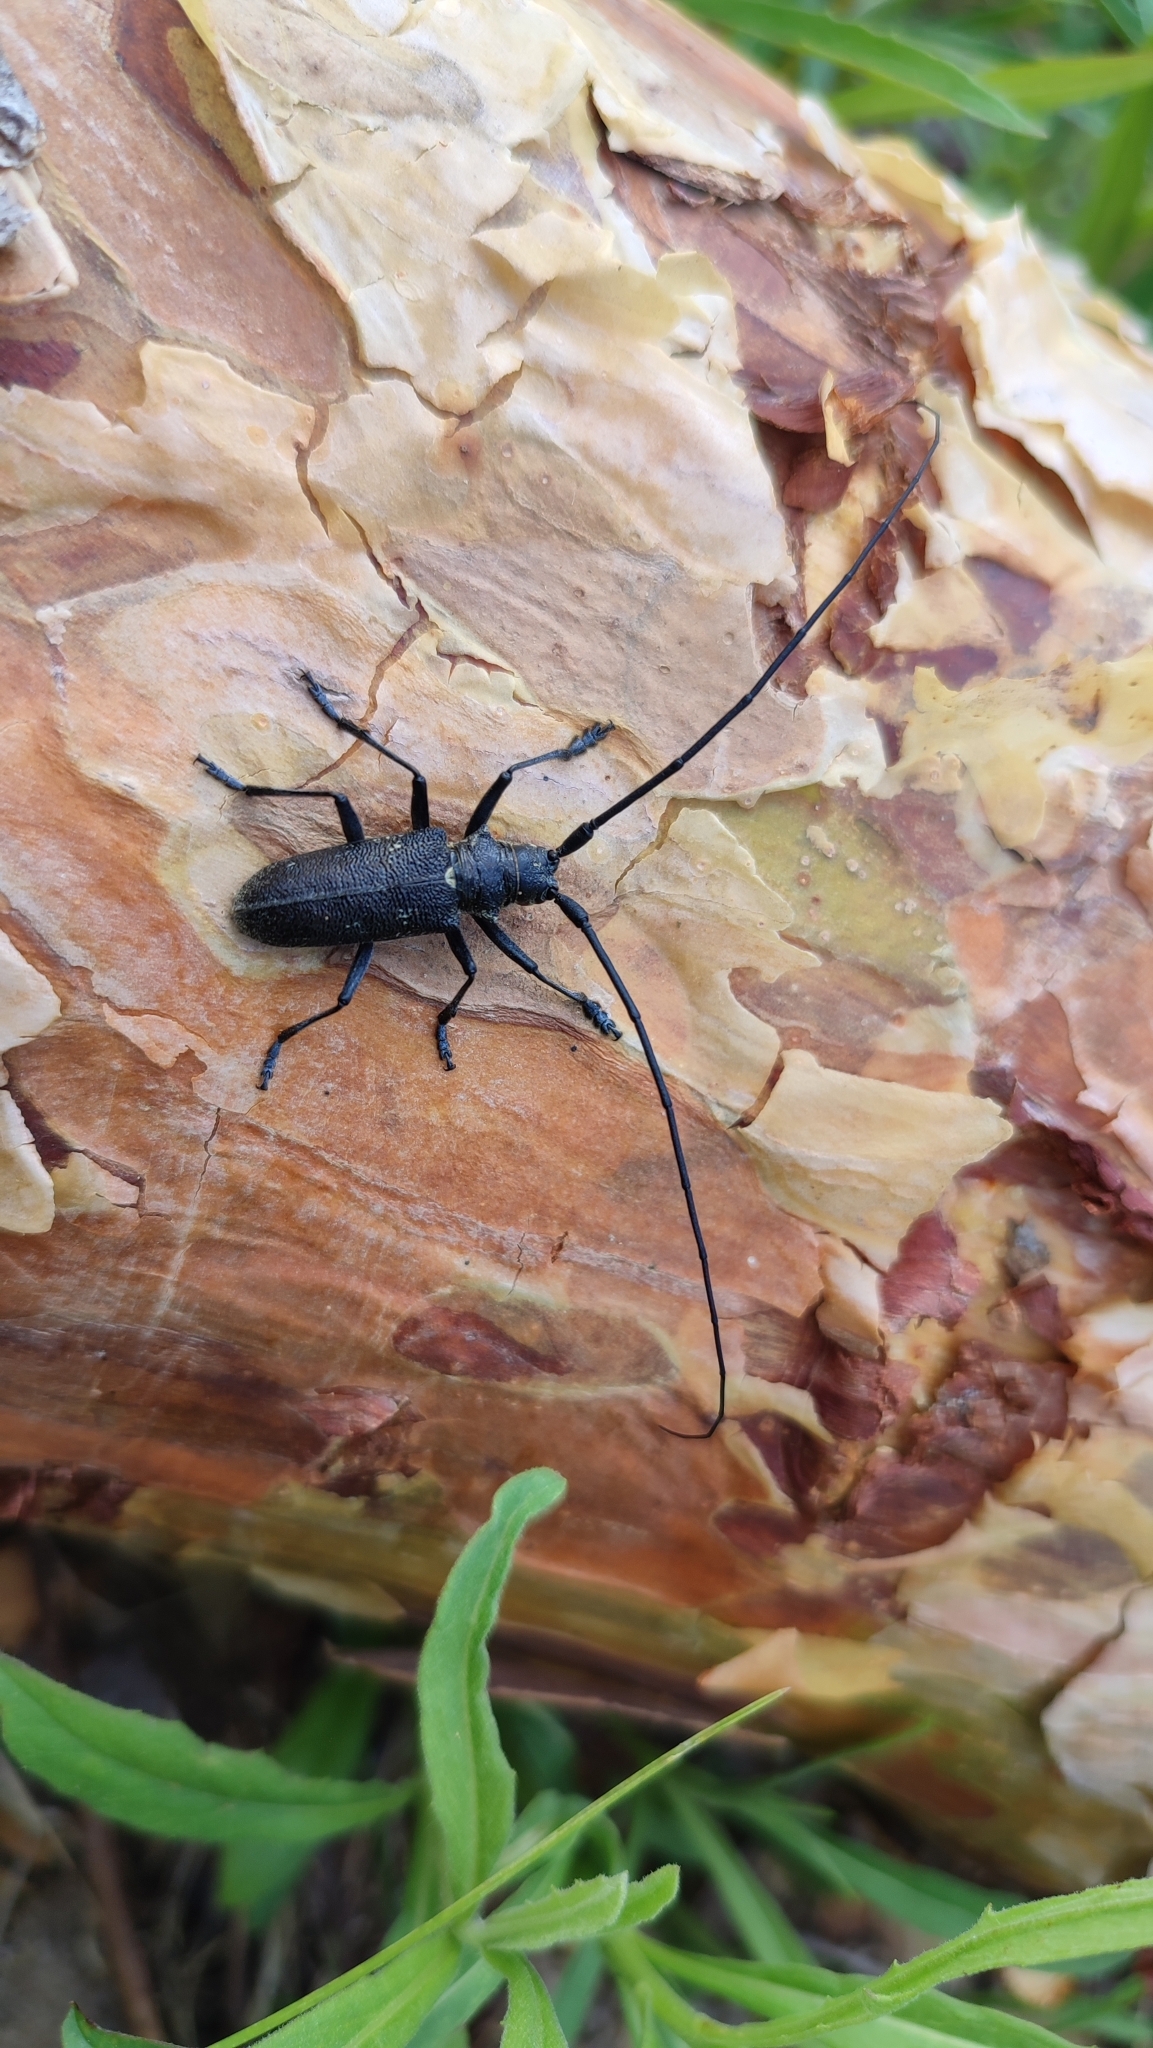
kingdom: Animalia
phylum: Arthropoda
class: Insecta
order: Coleoptera
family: Cerambycidae
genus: Monochamus
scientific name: Monochamus sutor
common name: Pine sawyer
